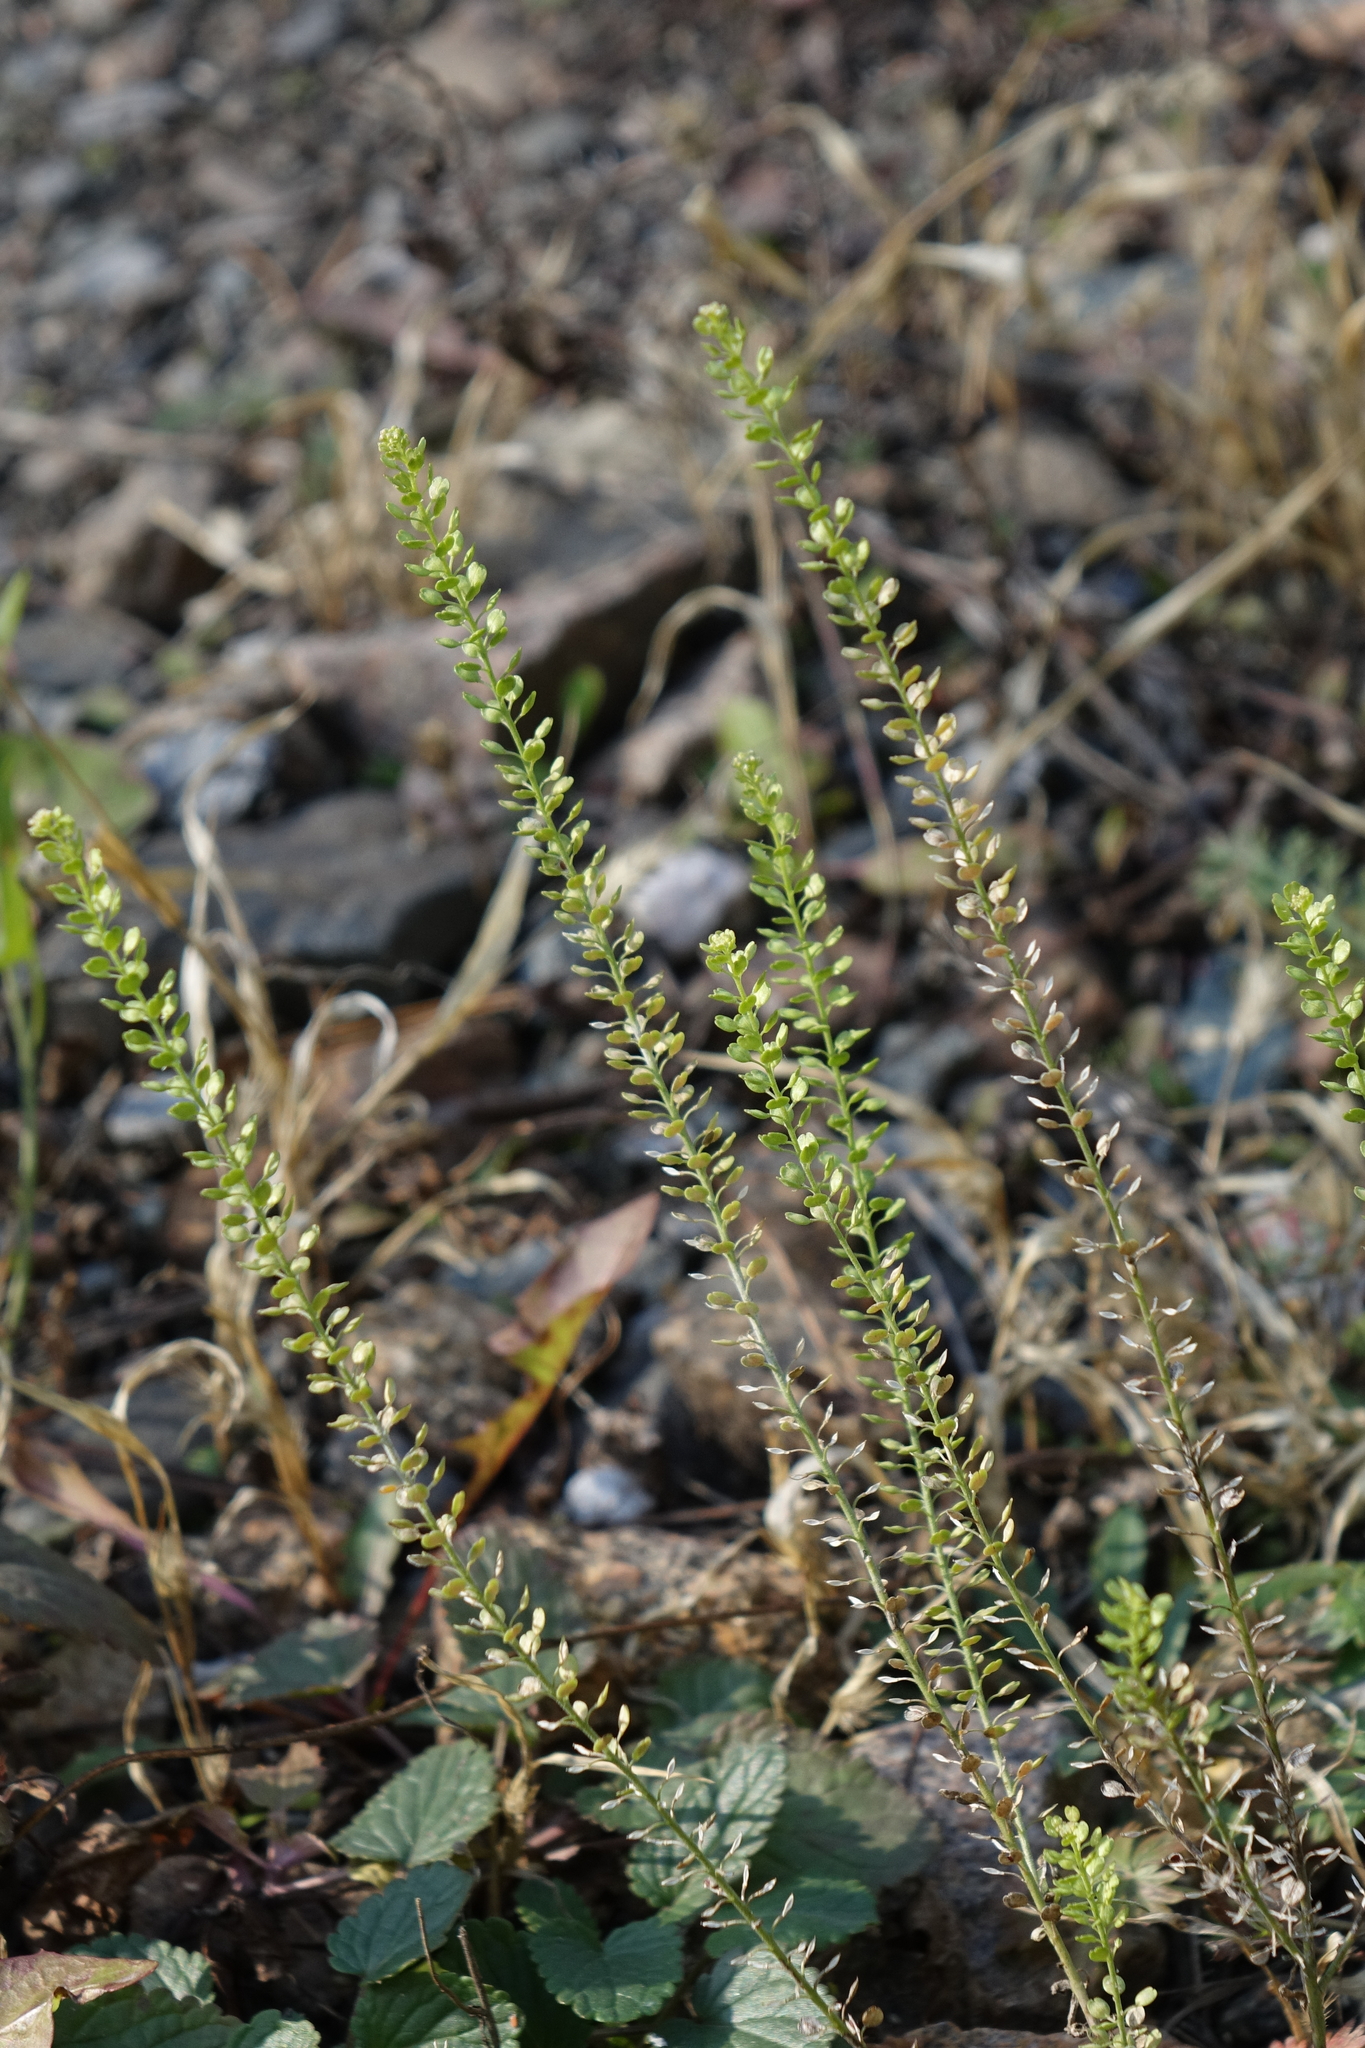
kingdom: Plantae
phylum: Tracheophyta
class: Magnoliopsida
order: Brassicales
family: Brassicaceae
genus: Lepidium
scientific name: Lepidium densiflorum
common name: Miner's pepperwort
